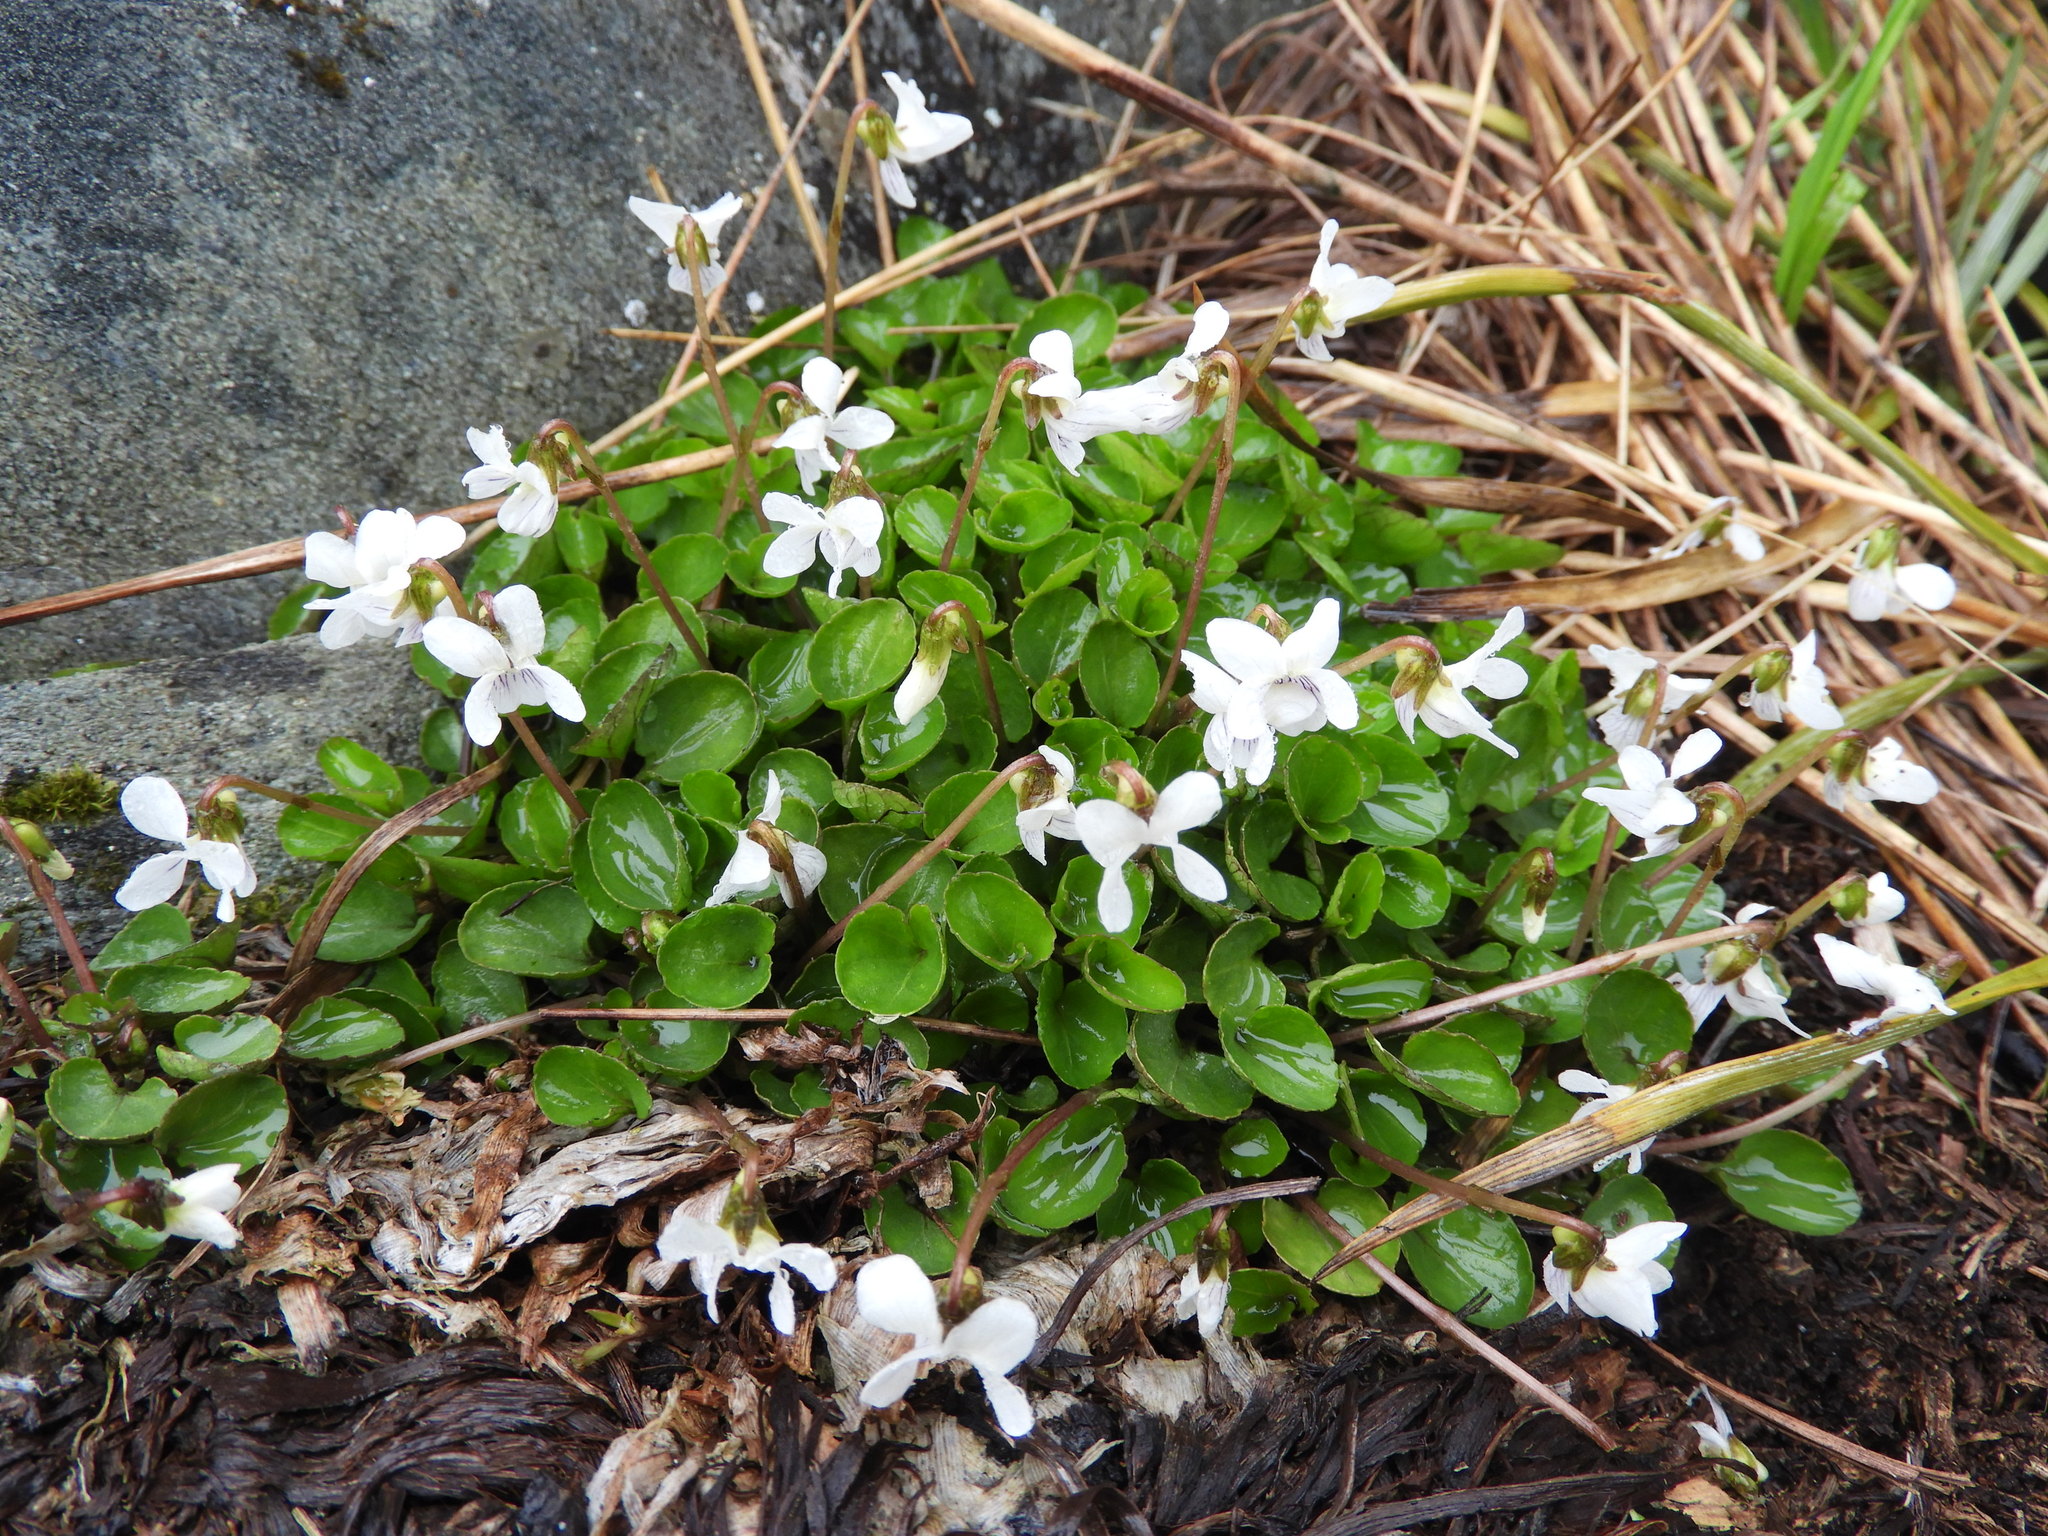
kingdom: Plantae
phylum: Tracheophyta
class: Magnoliopsida
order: Malpighiales
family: Violaceae
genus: Viola
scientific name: Viola cunninghamii
